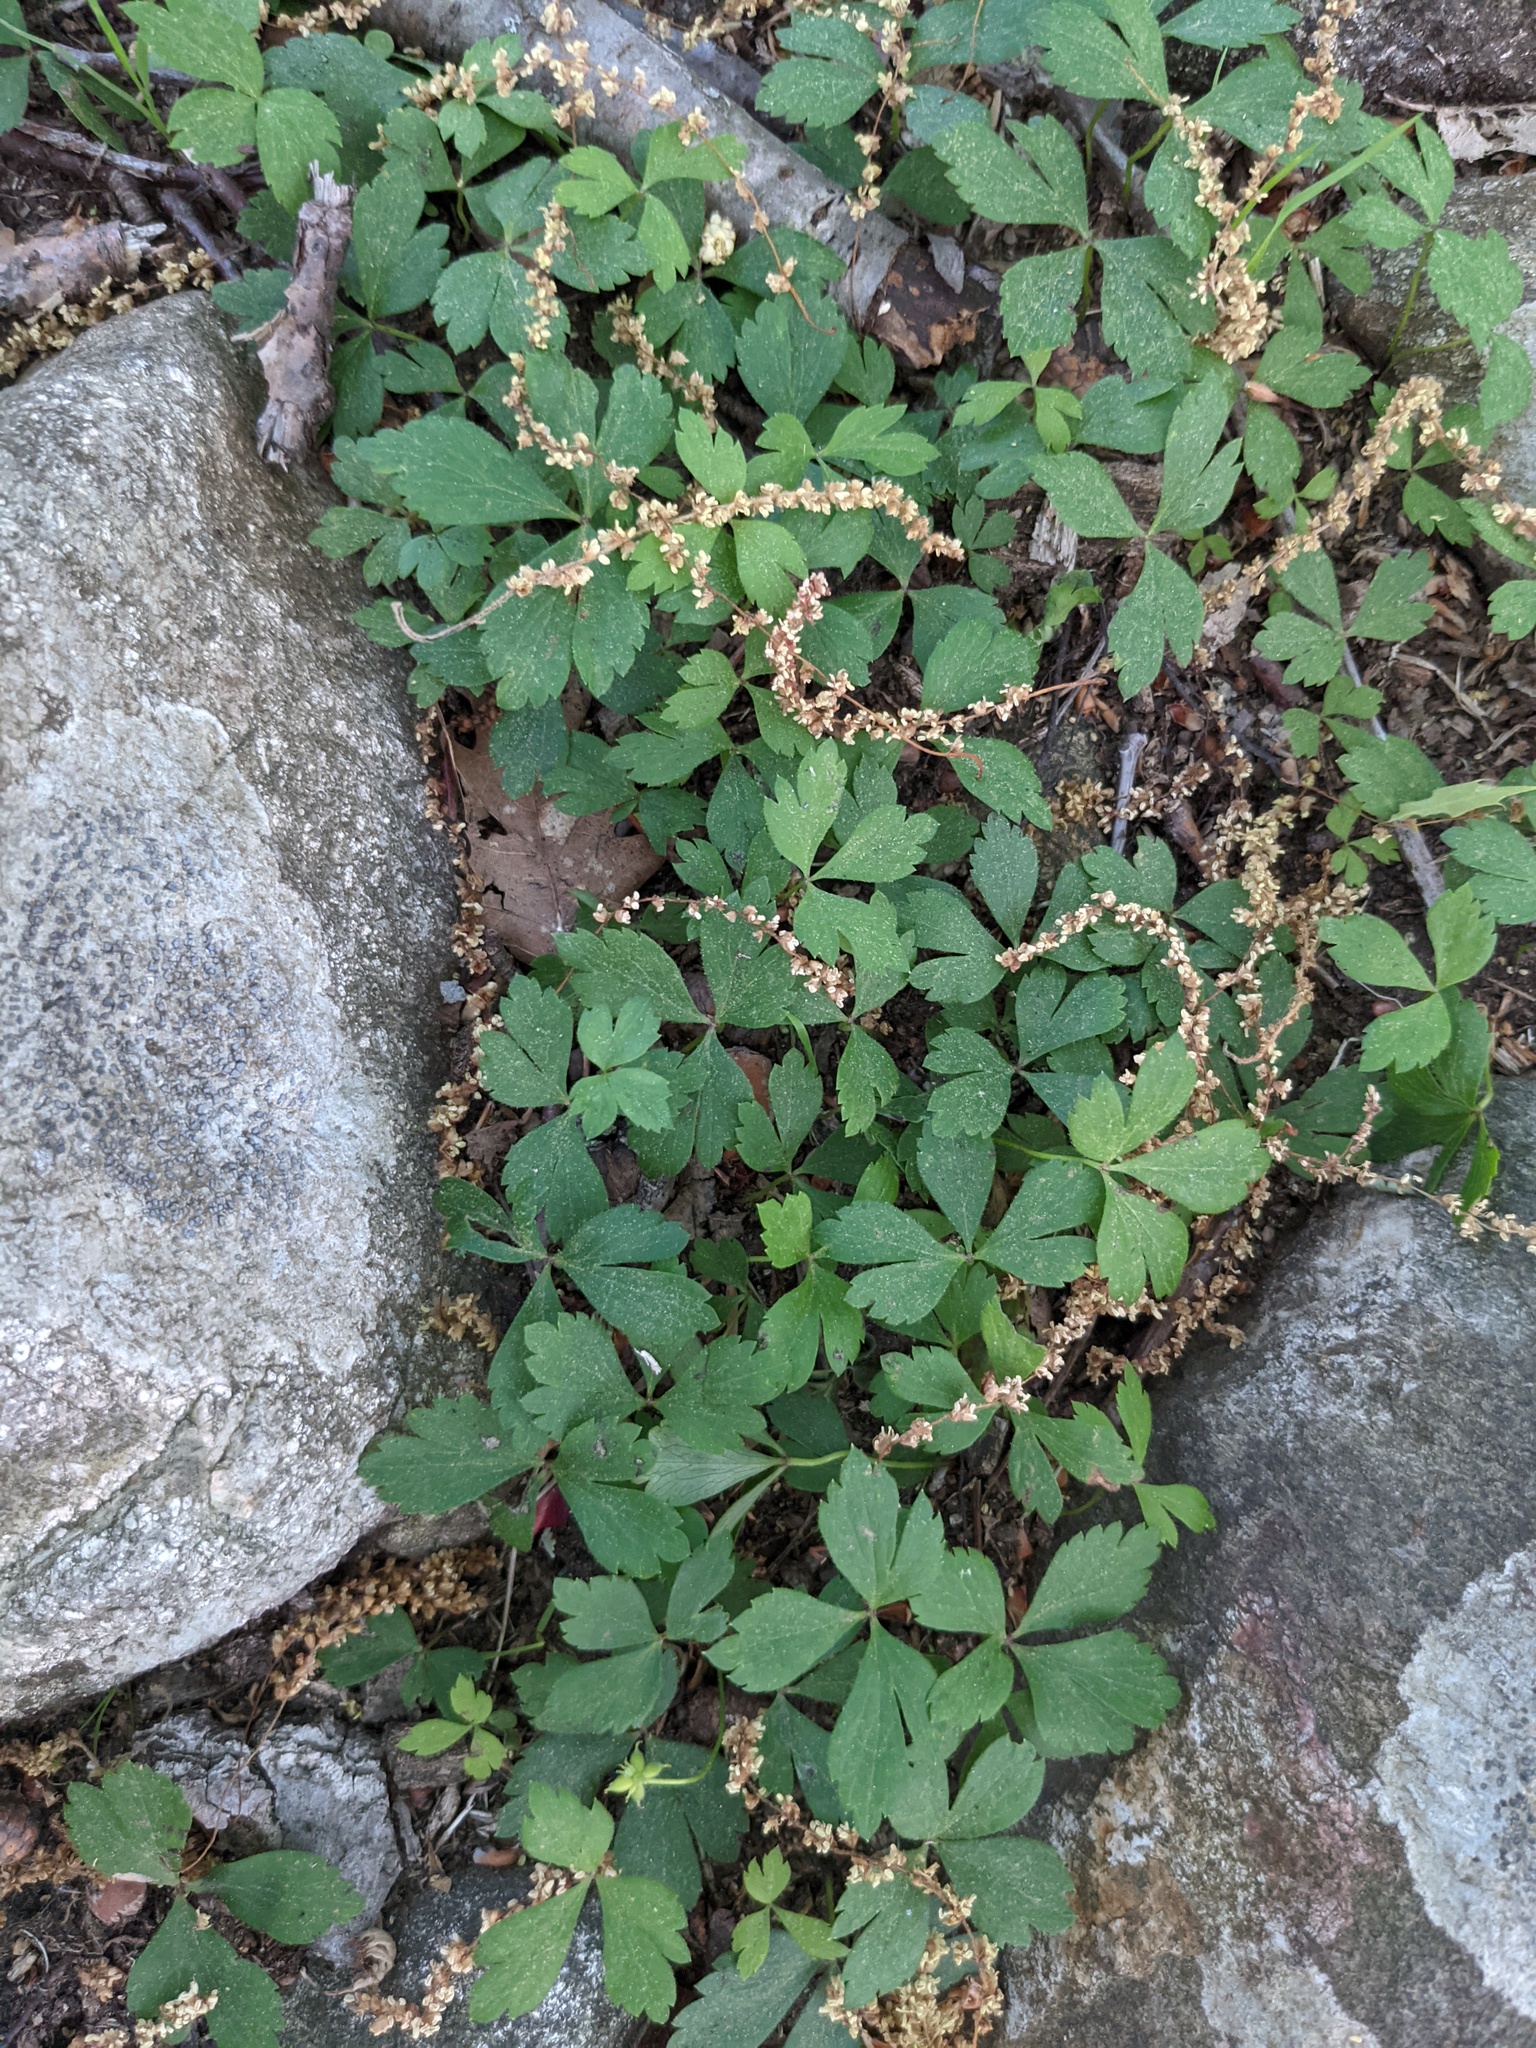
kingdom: Plantae
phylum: Tracheophyta
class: Magnoliopsida
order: Ranunculales
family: Ranunculaceae
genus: Anemone
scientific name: Anemone quinquefolia
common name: Wood anemone
